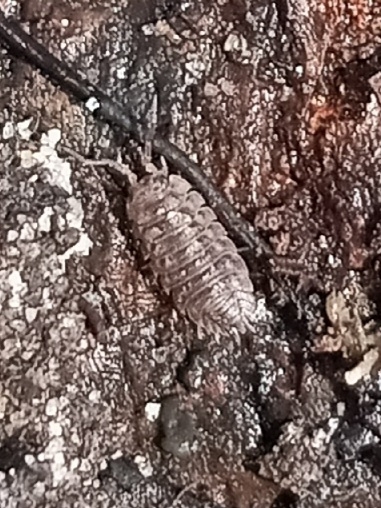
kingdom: Animalia
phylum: Arthropoda
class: Malacostraca
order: Isopoda
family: Oniscidae
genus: Oniscus
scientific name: Oniscus asellus
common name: Common shiny woodlouse
